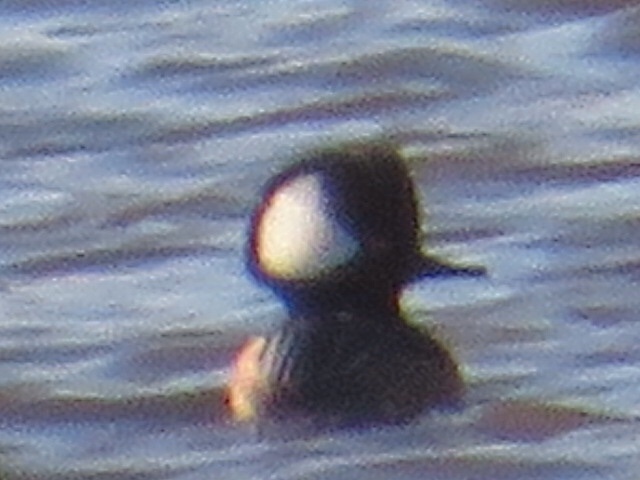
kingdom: Animalia
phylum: Chordata
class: Aves
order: Anseriformes
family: Anatidae
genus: Lophodytes
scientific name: Lophodytes cucullatus
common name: Hooded merganser
